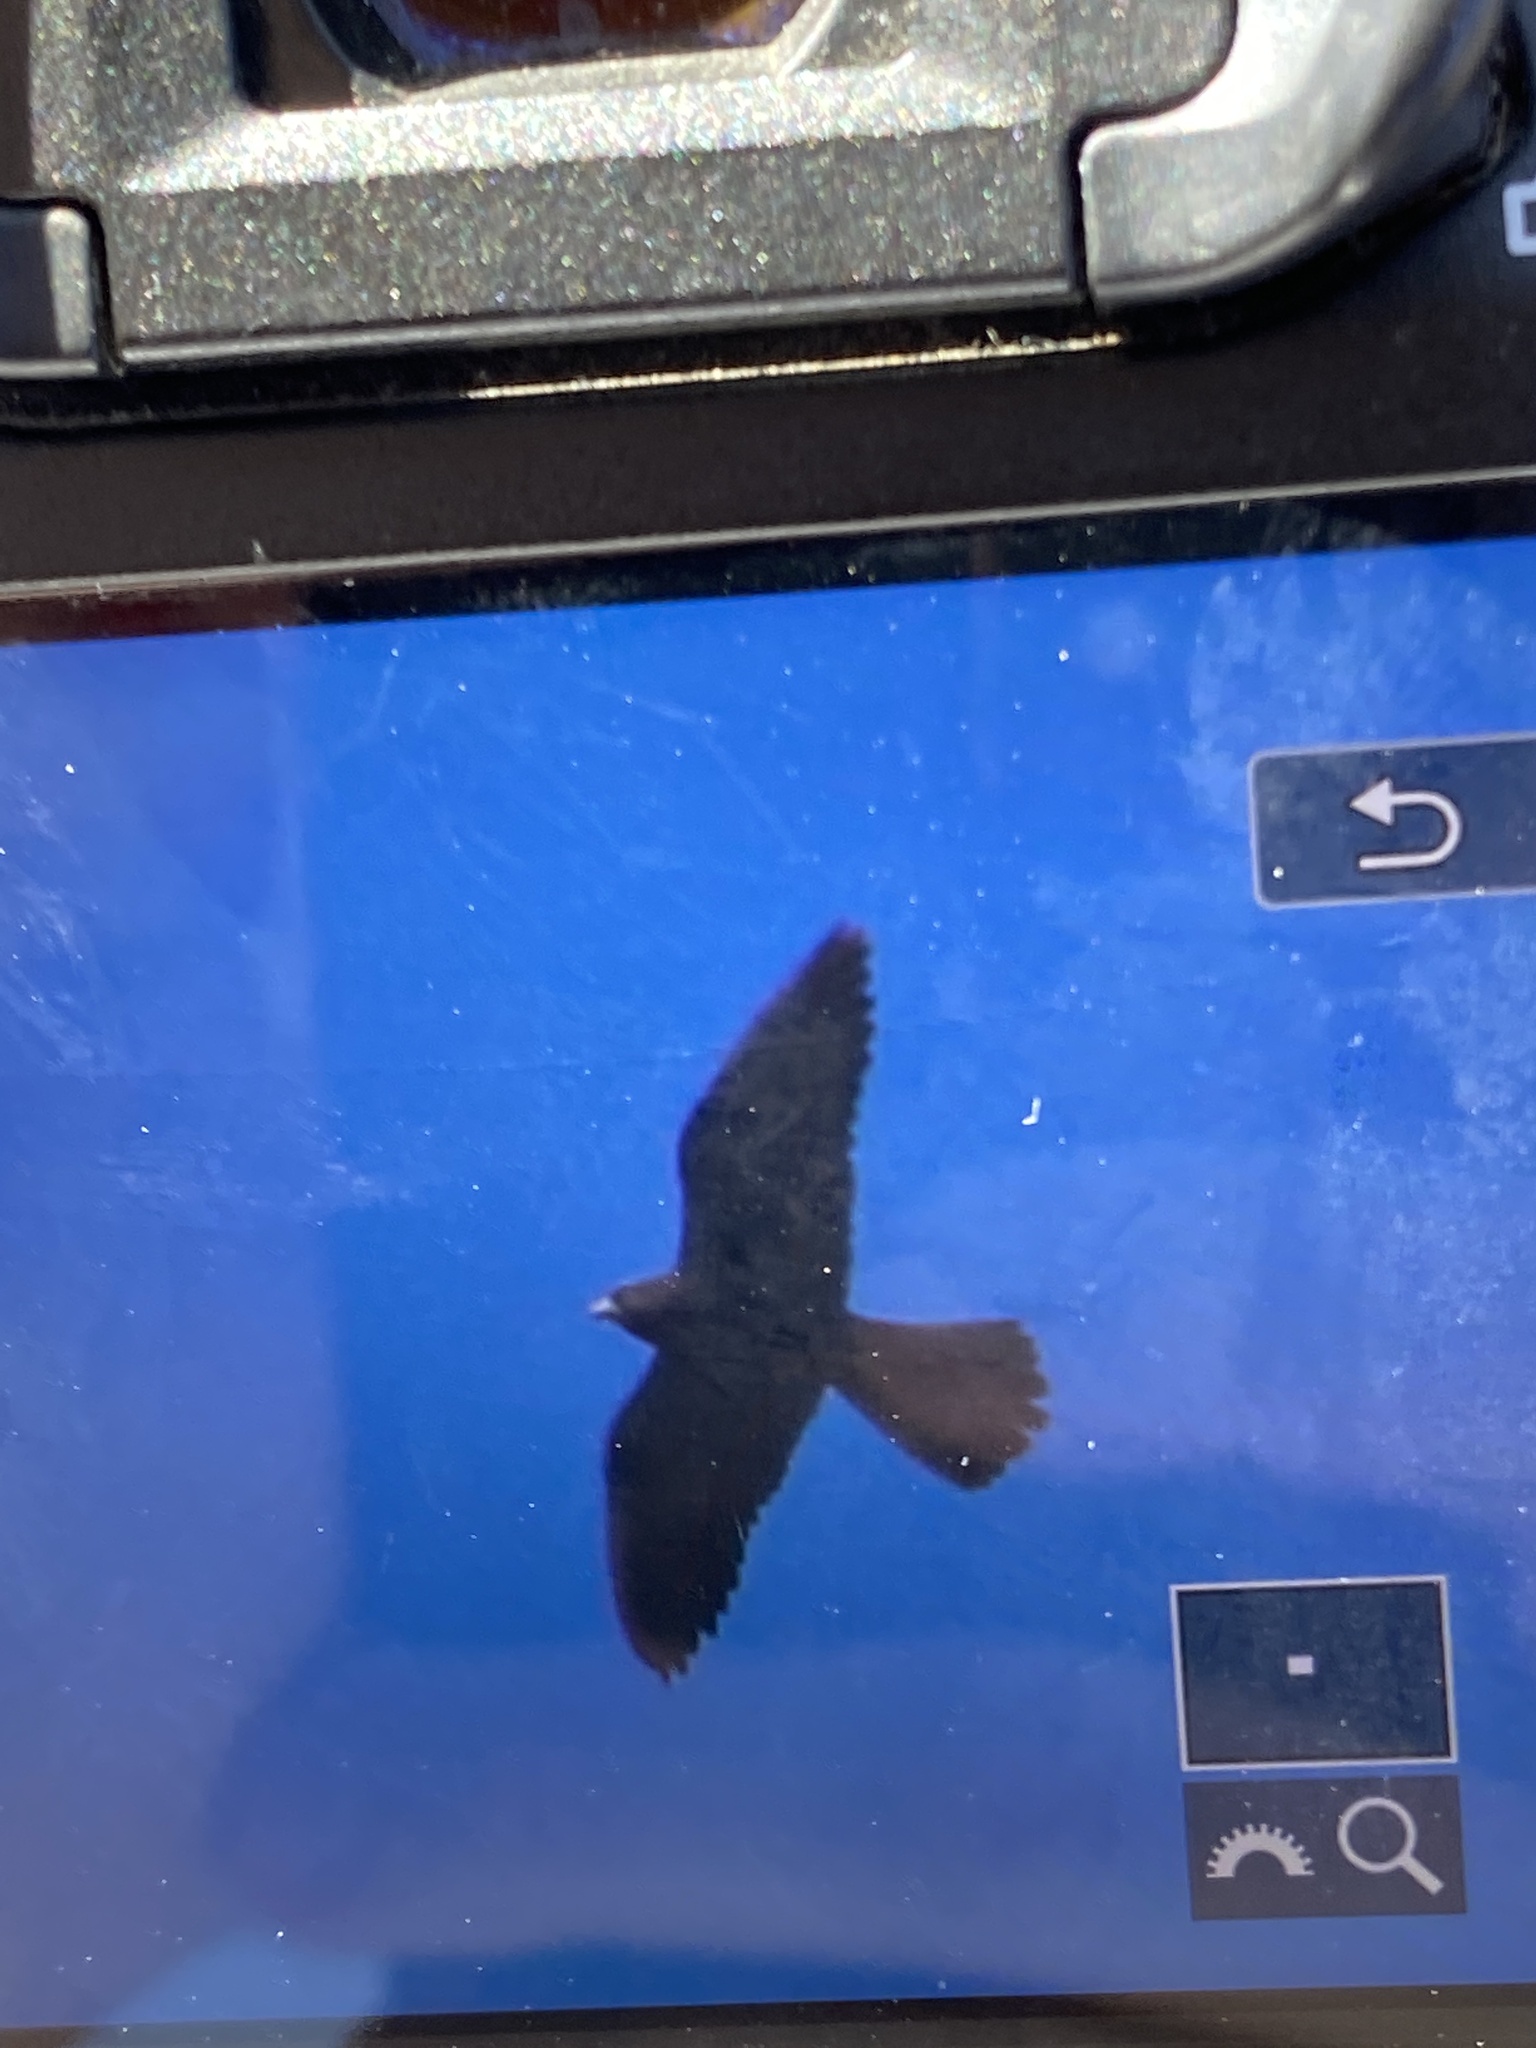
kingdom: Animalia
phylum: Chordata
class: Aves
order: Falconiformes
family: Falconidae
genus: Falco
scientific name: Falco eleonorae
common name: Eleonora's falcon
